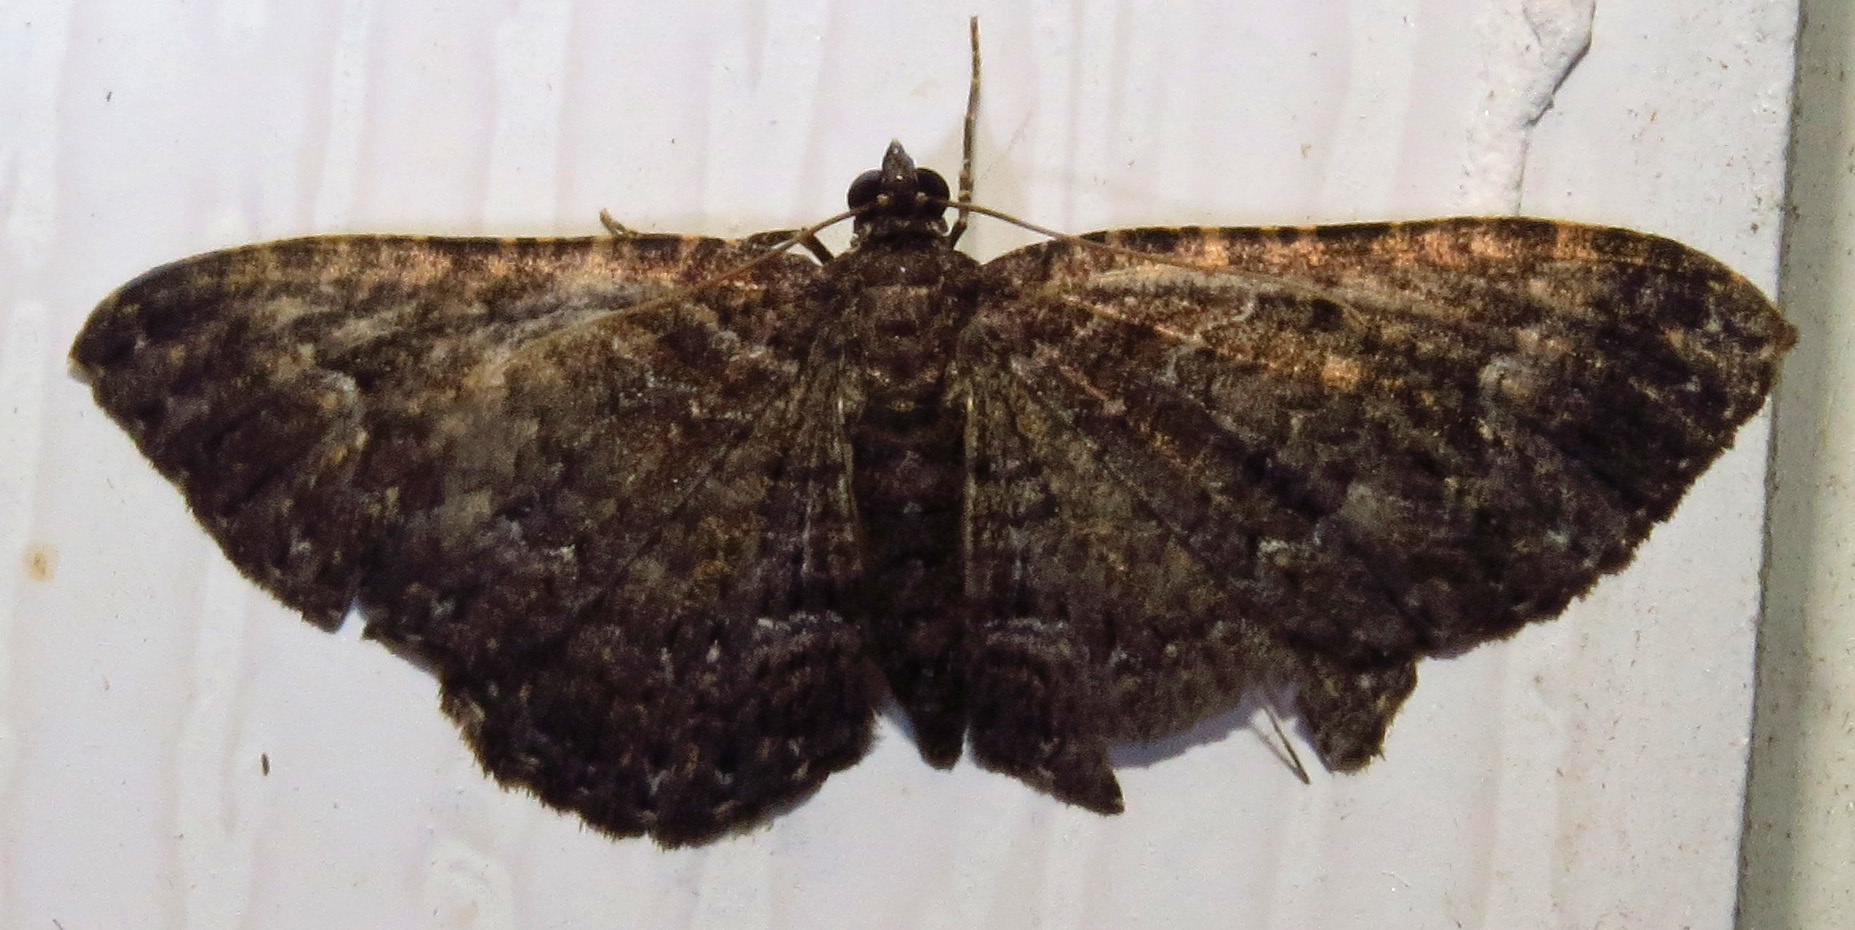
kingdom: Animalia
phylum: Arthropoda
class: Insecta
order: Lepidoptera
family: Geometridae
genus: Disclisioprocta
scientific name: Disclisioprocta stellata
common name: Somber carpet
